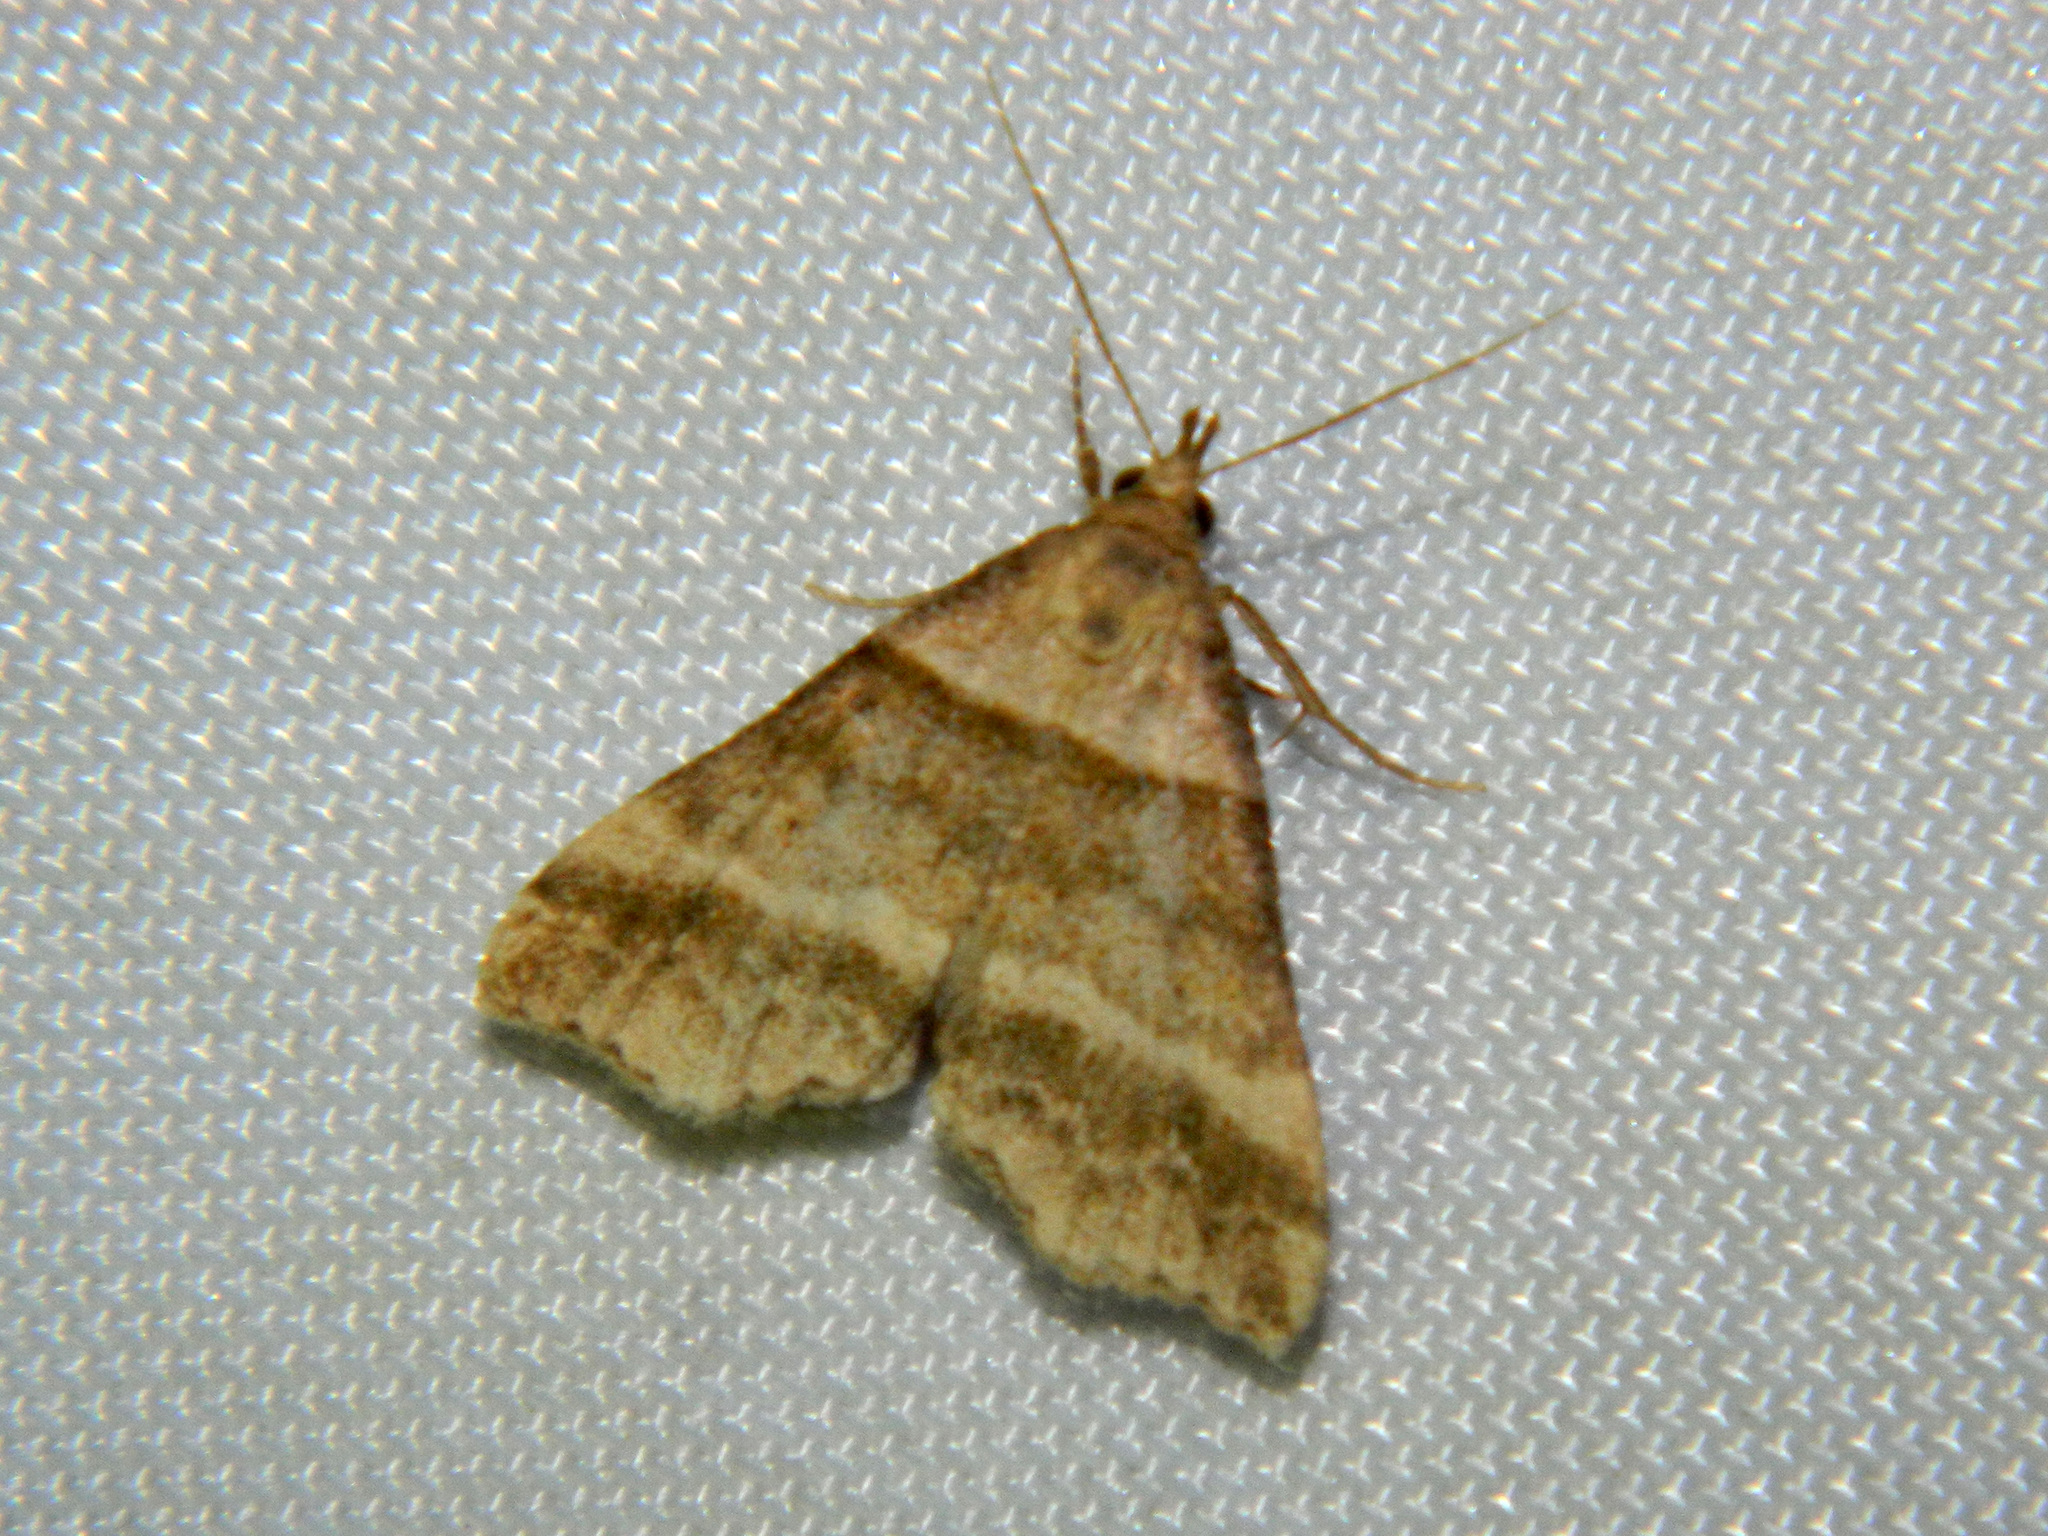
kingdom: Animalia
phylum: Arthropoda
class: Insecta
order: Lepidoptera
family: Erebidae
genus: Phaeolita
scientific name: Phaeolita pyramusalis
